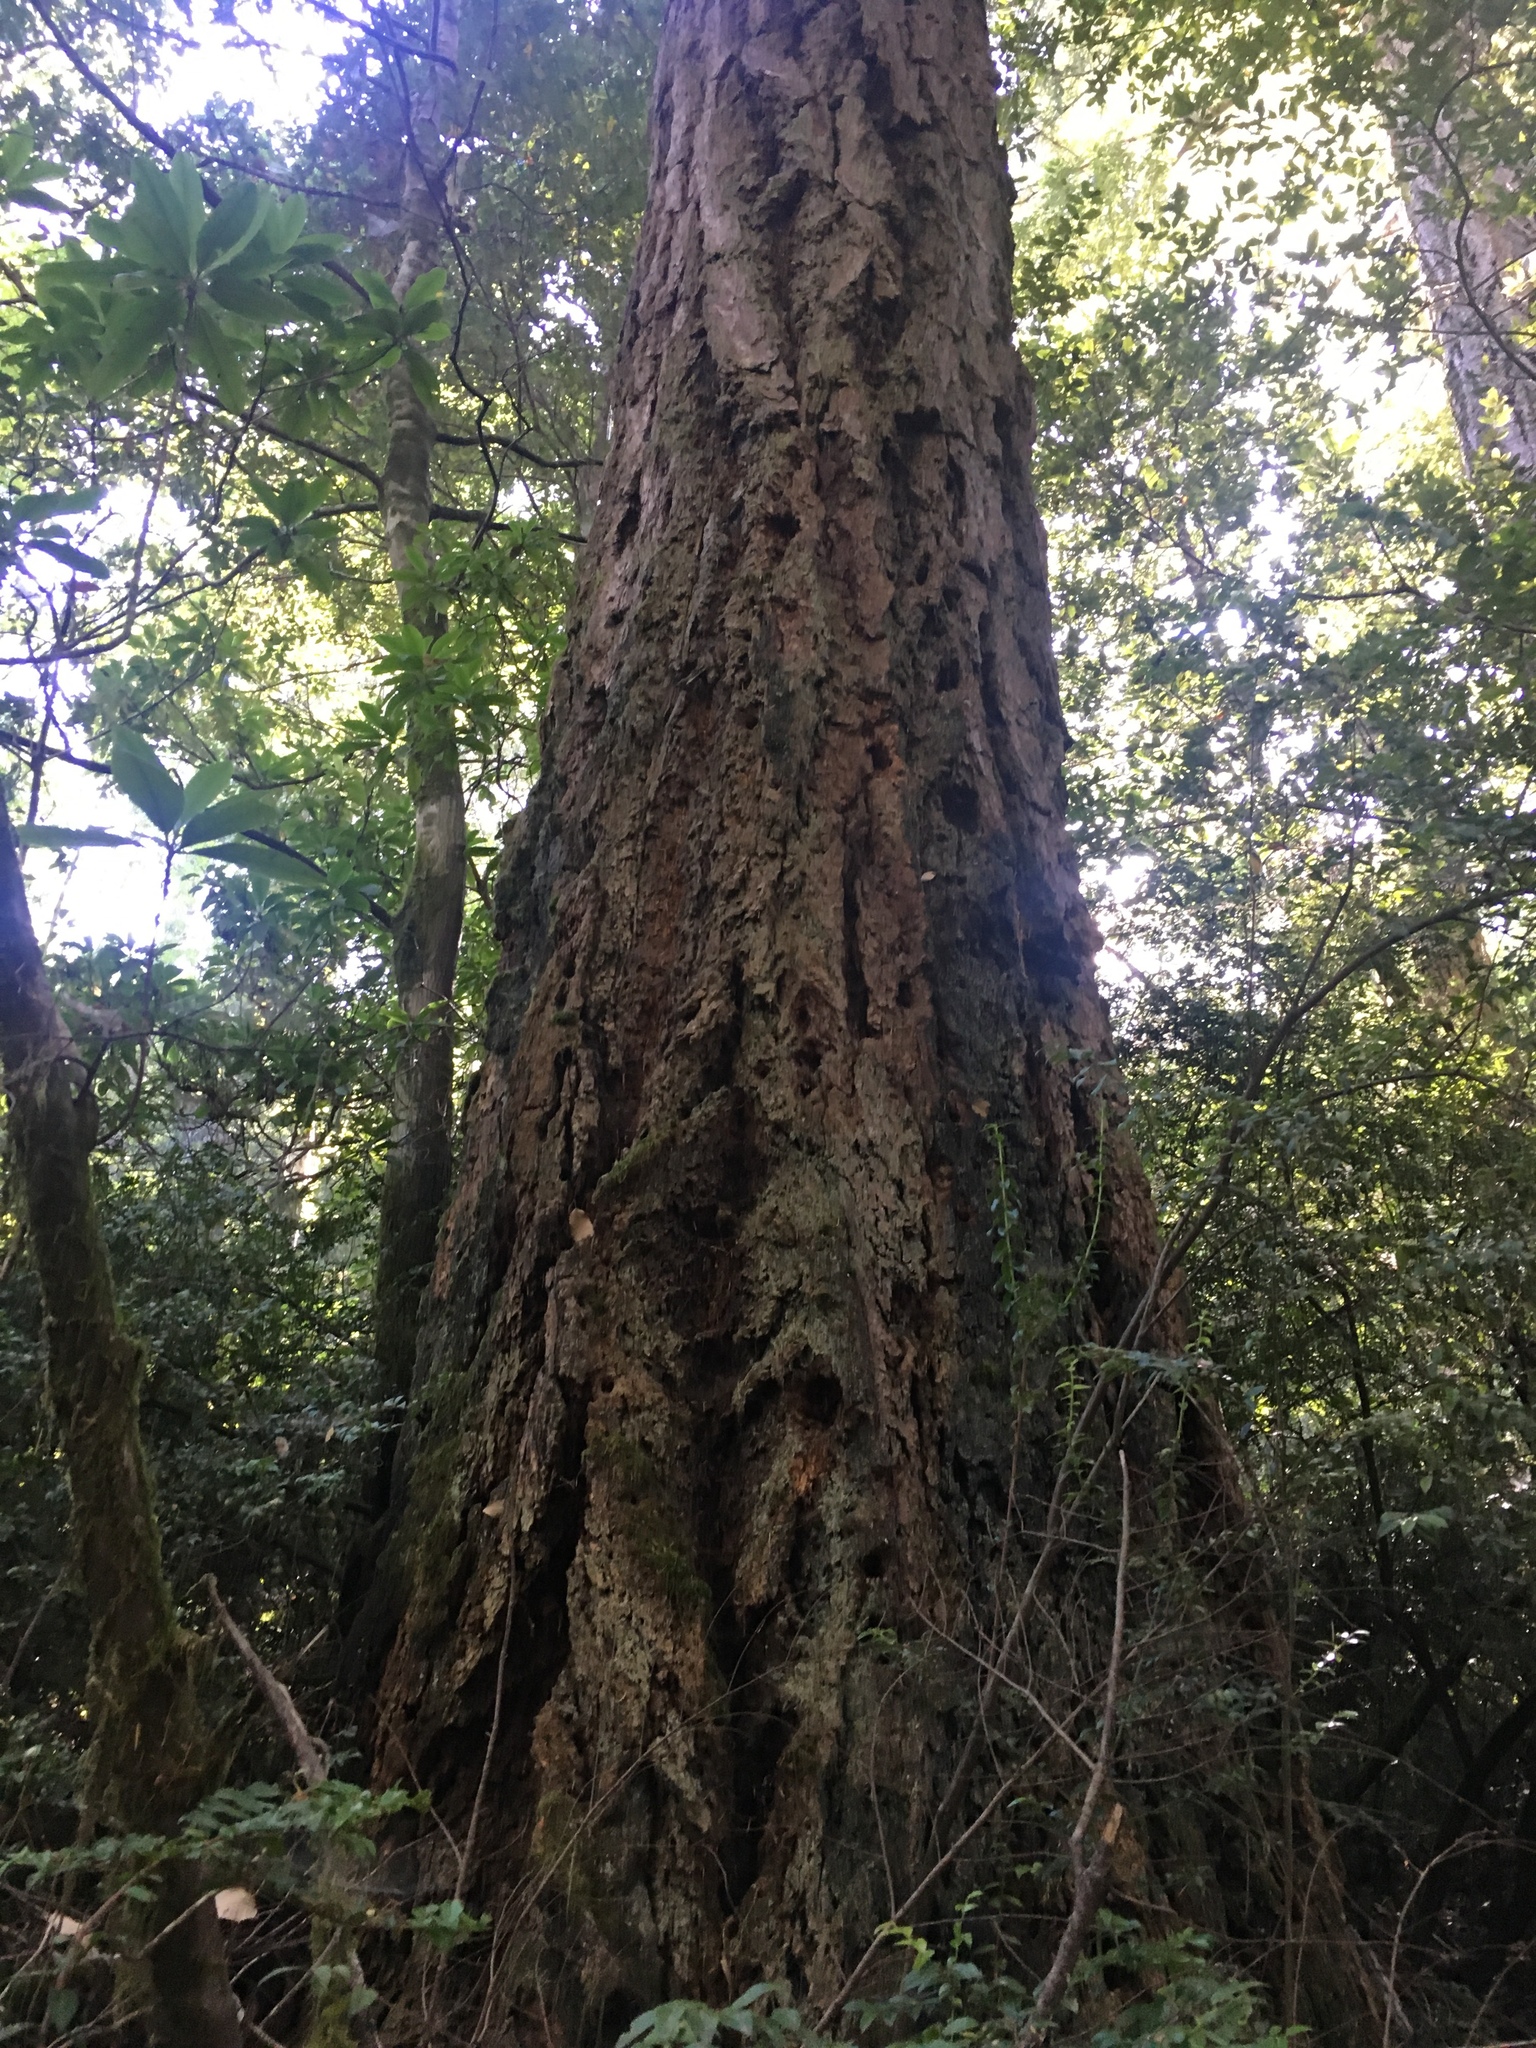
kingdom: Plantae
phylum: Tracheophyta
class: Pinopsida
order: Pinales
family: Pinaceae
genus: Pseudotsuga
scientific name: Pseudotsuga menziesii
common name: Douglas fir
